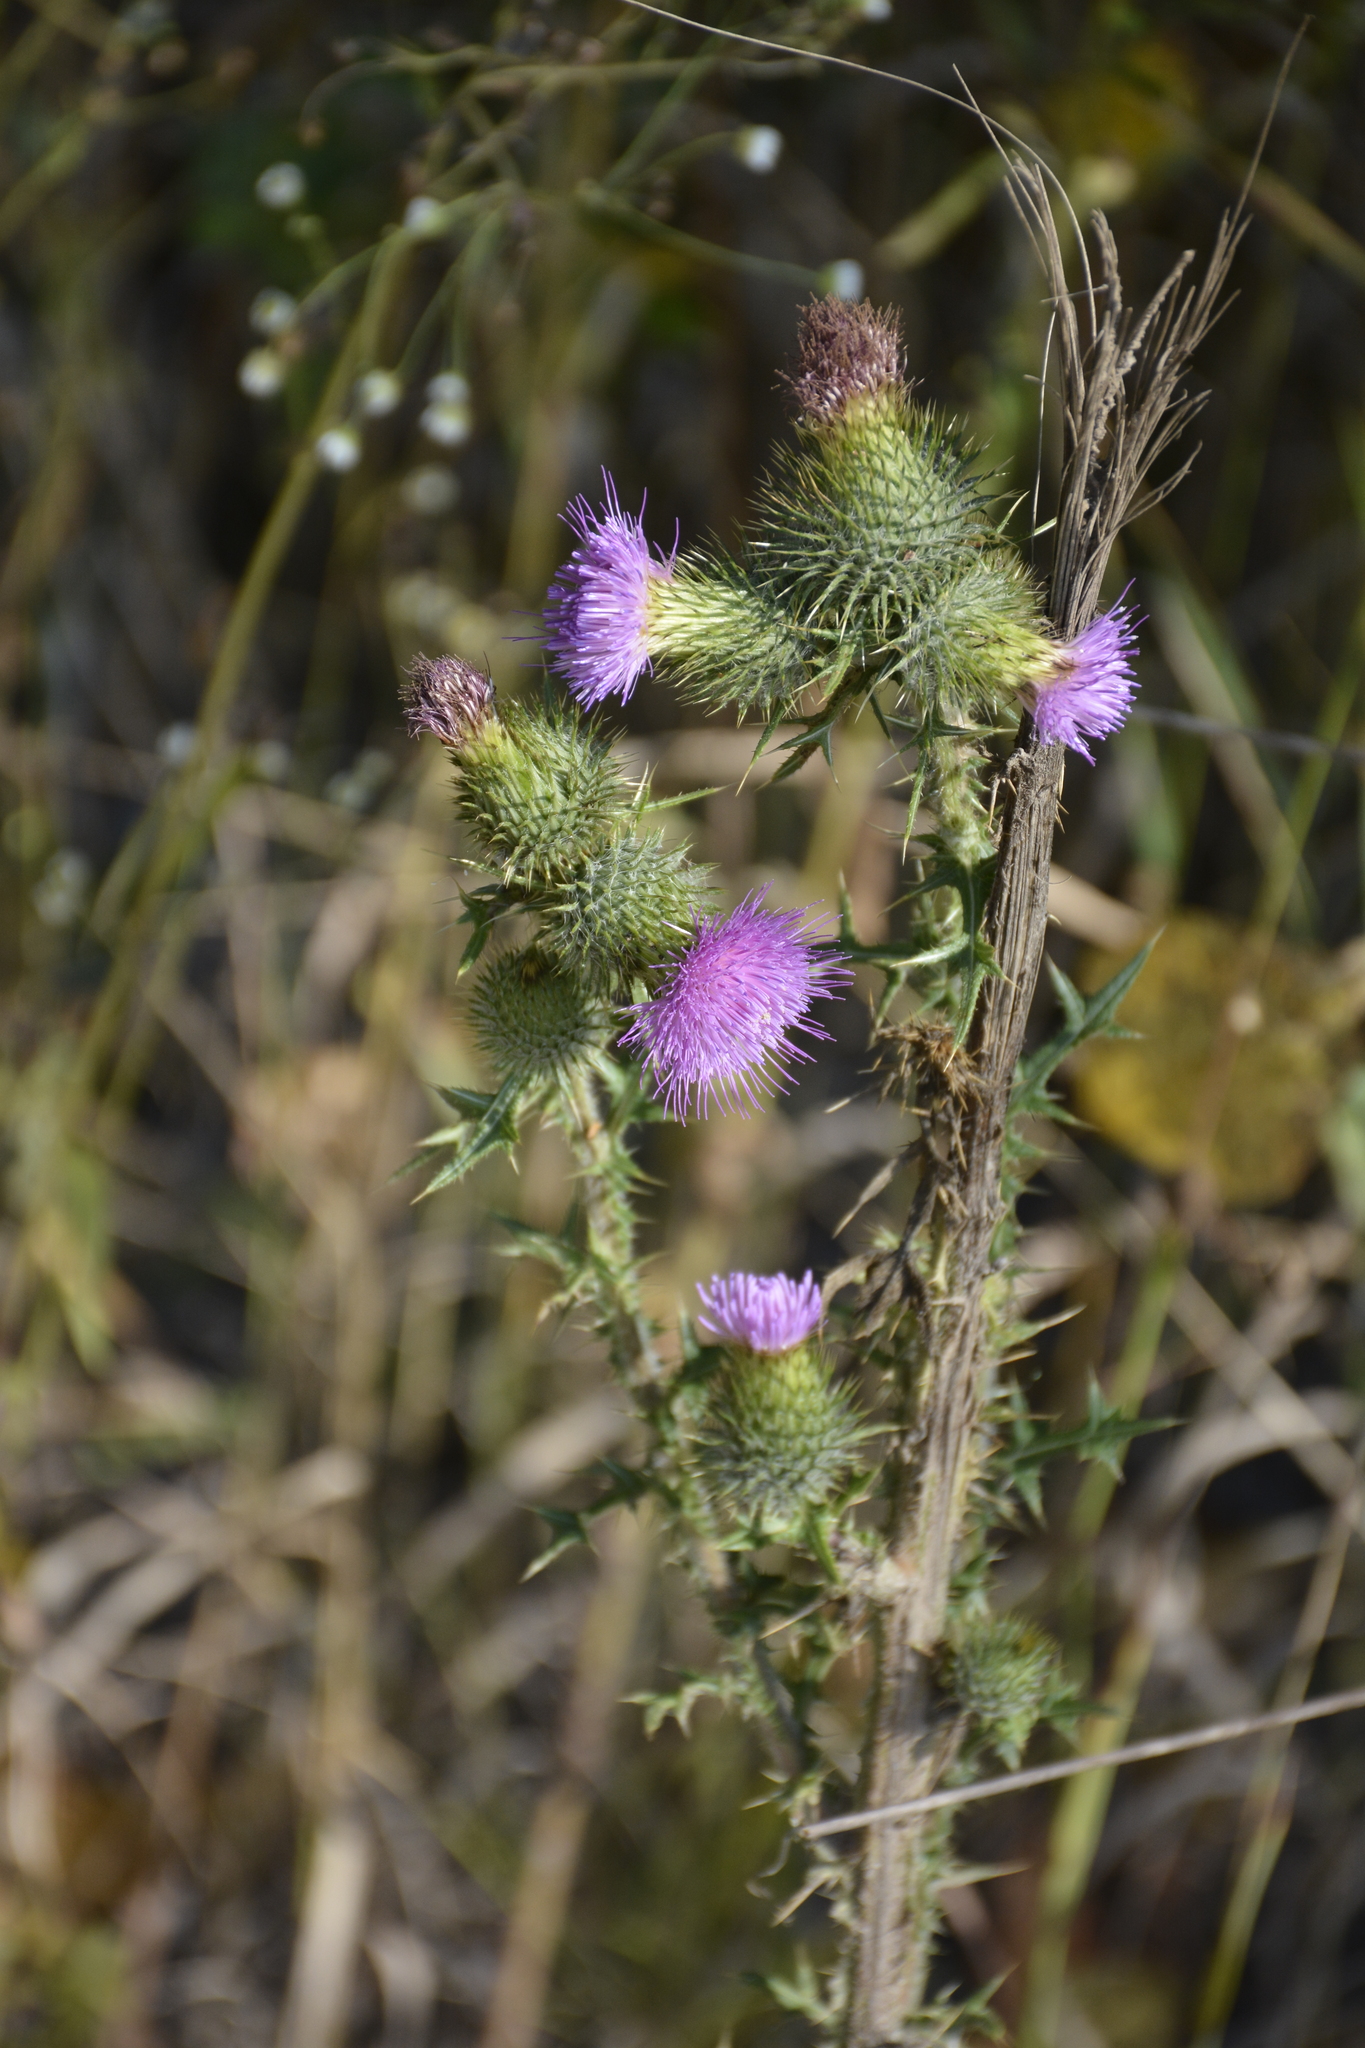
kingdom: Plantae
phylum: Tracheophyta
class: Magnoliopsida
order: Asterales
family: Asteraceae
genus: Cirsium
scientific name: Cirsium vulgare
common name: Bull thistle
